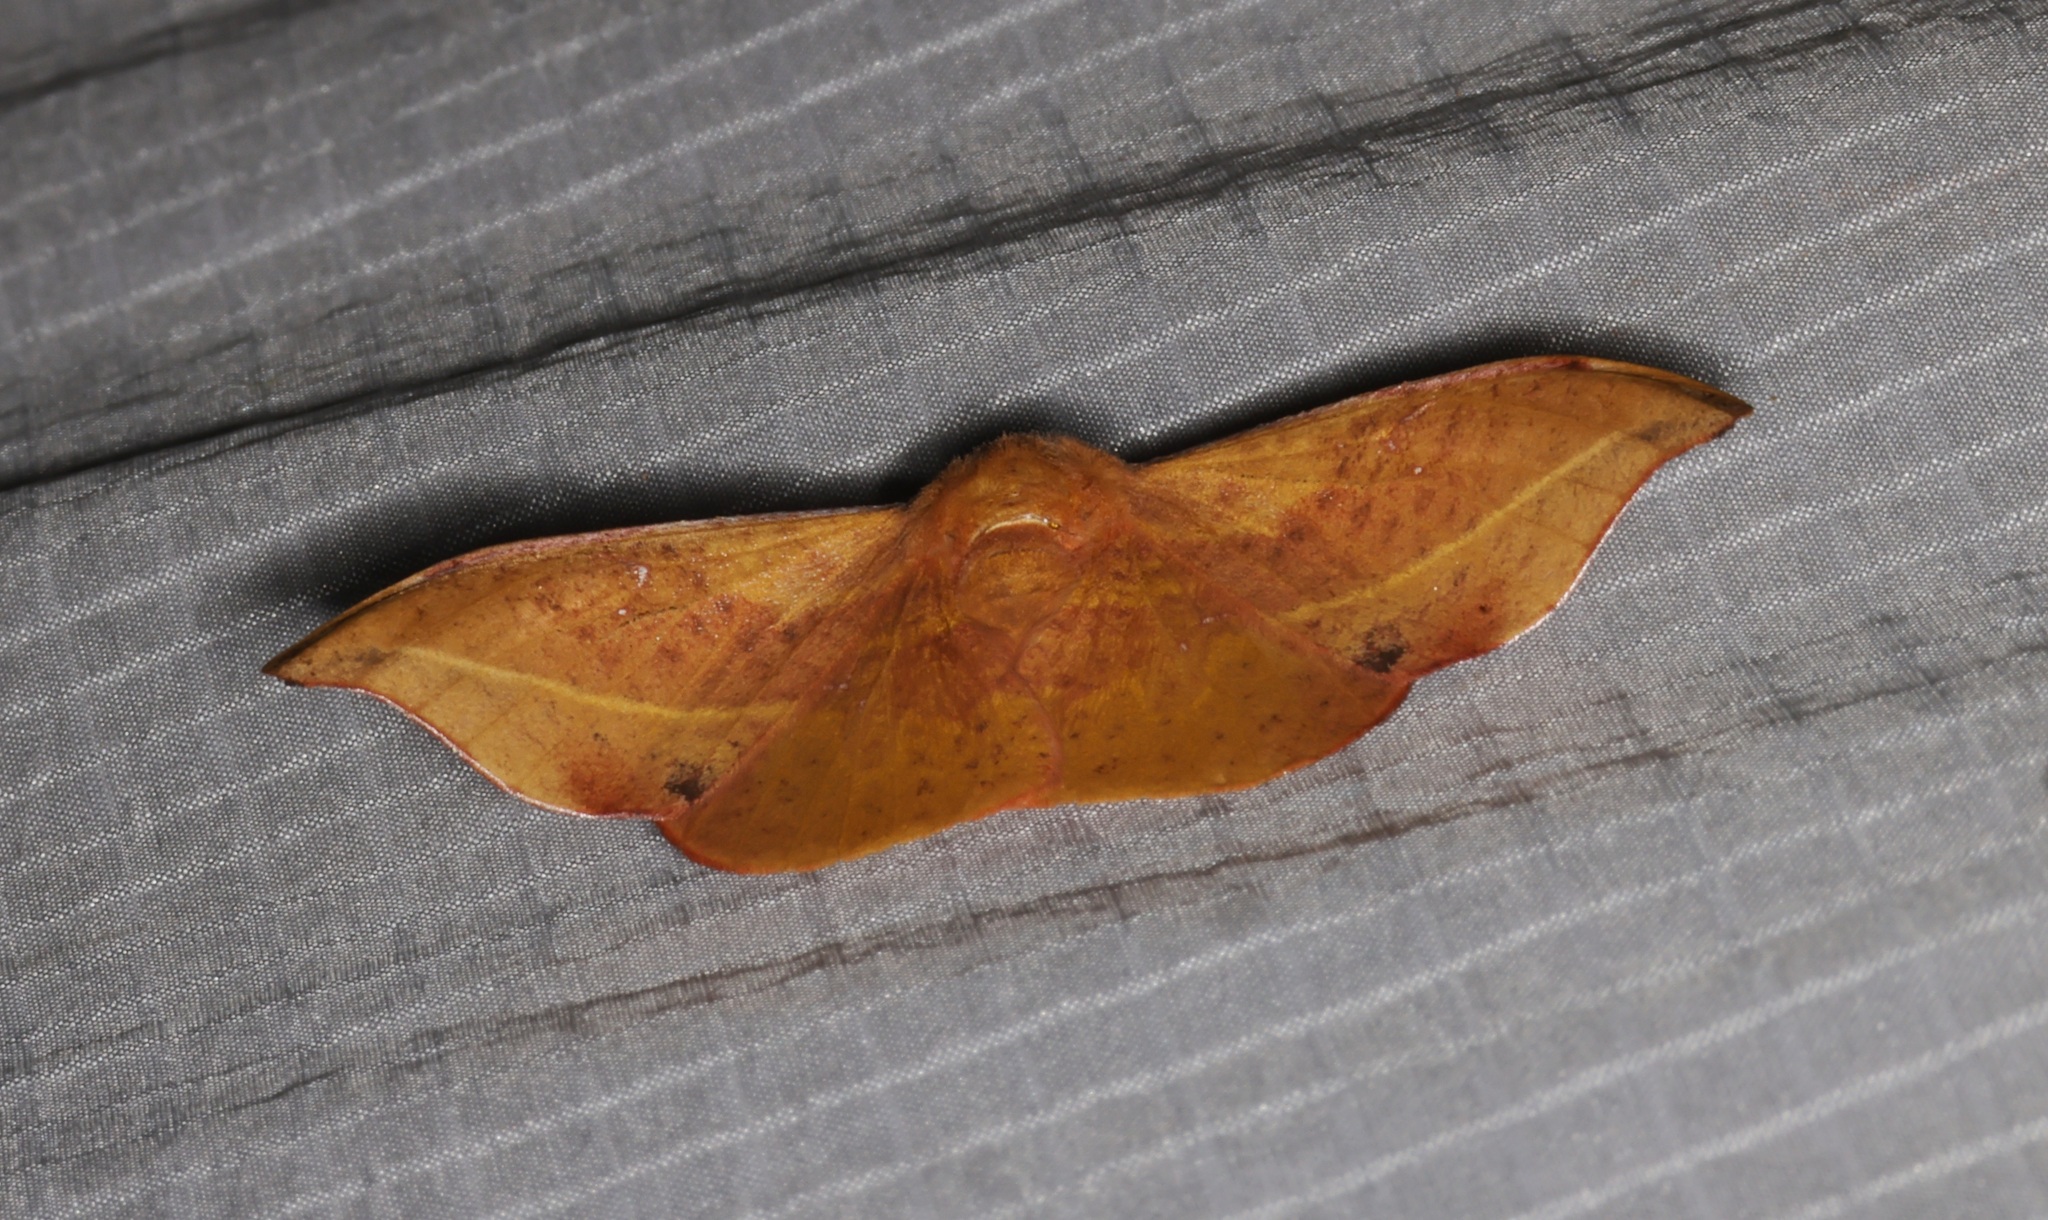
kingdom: Animalia
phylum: Arthropoda
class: Insecta
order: Lepidoptera
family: Drepanidae
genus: Oreta
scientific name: Oreta loochooana
